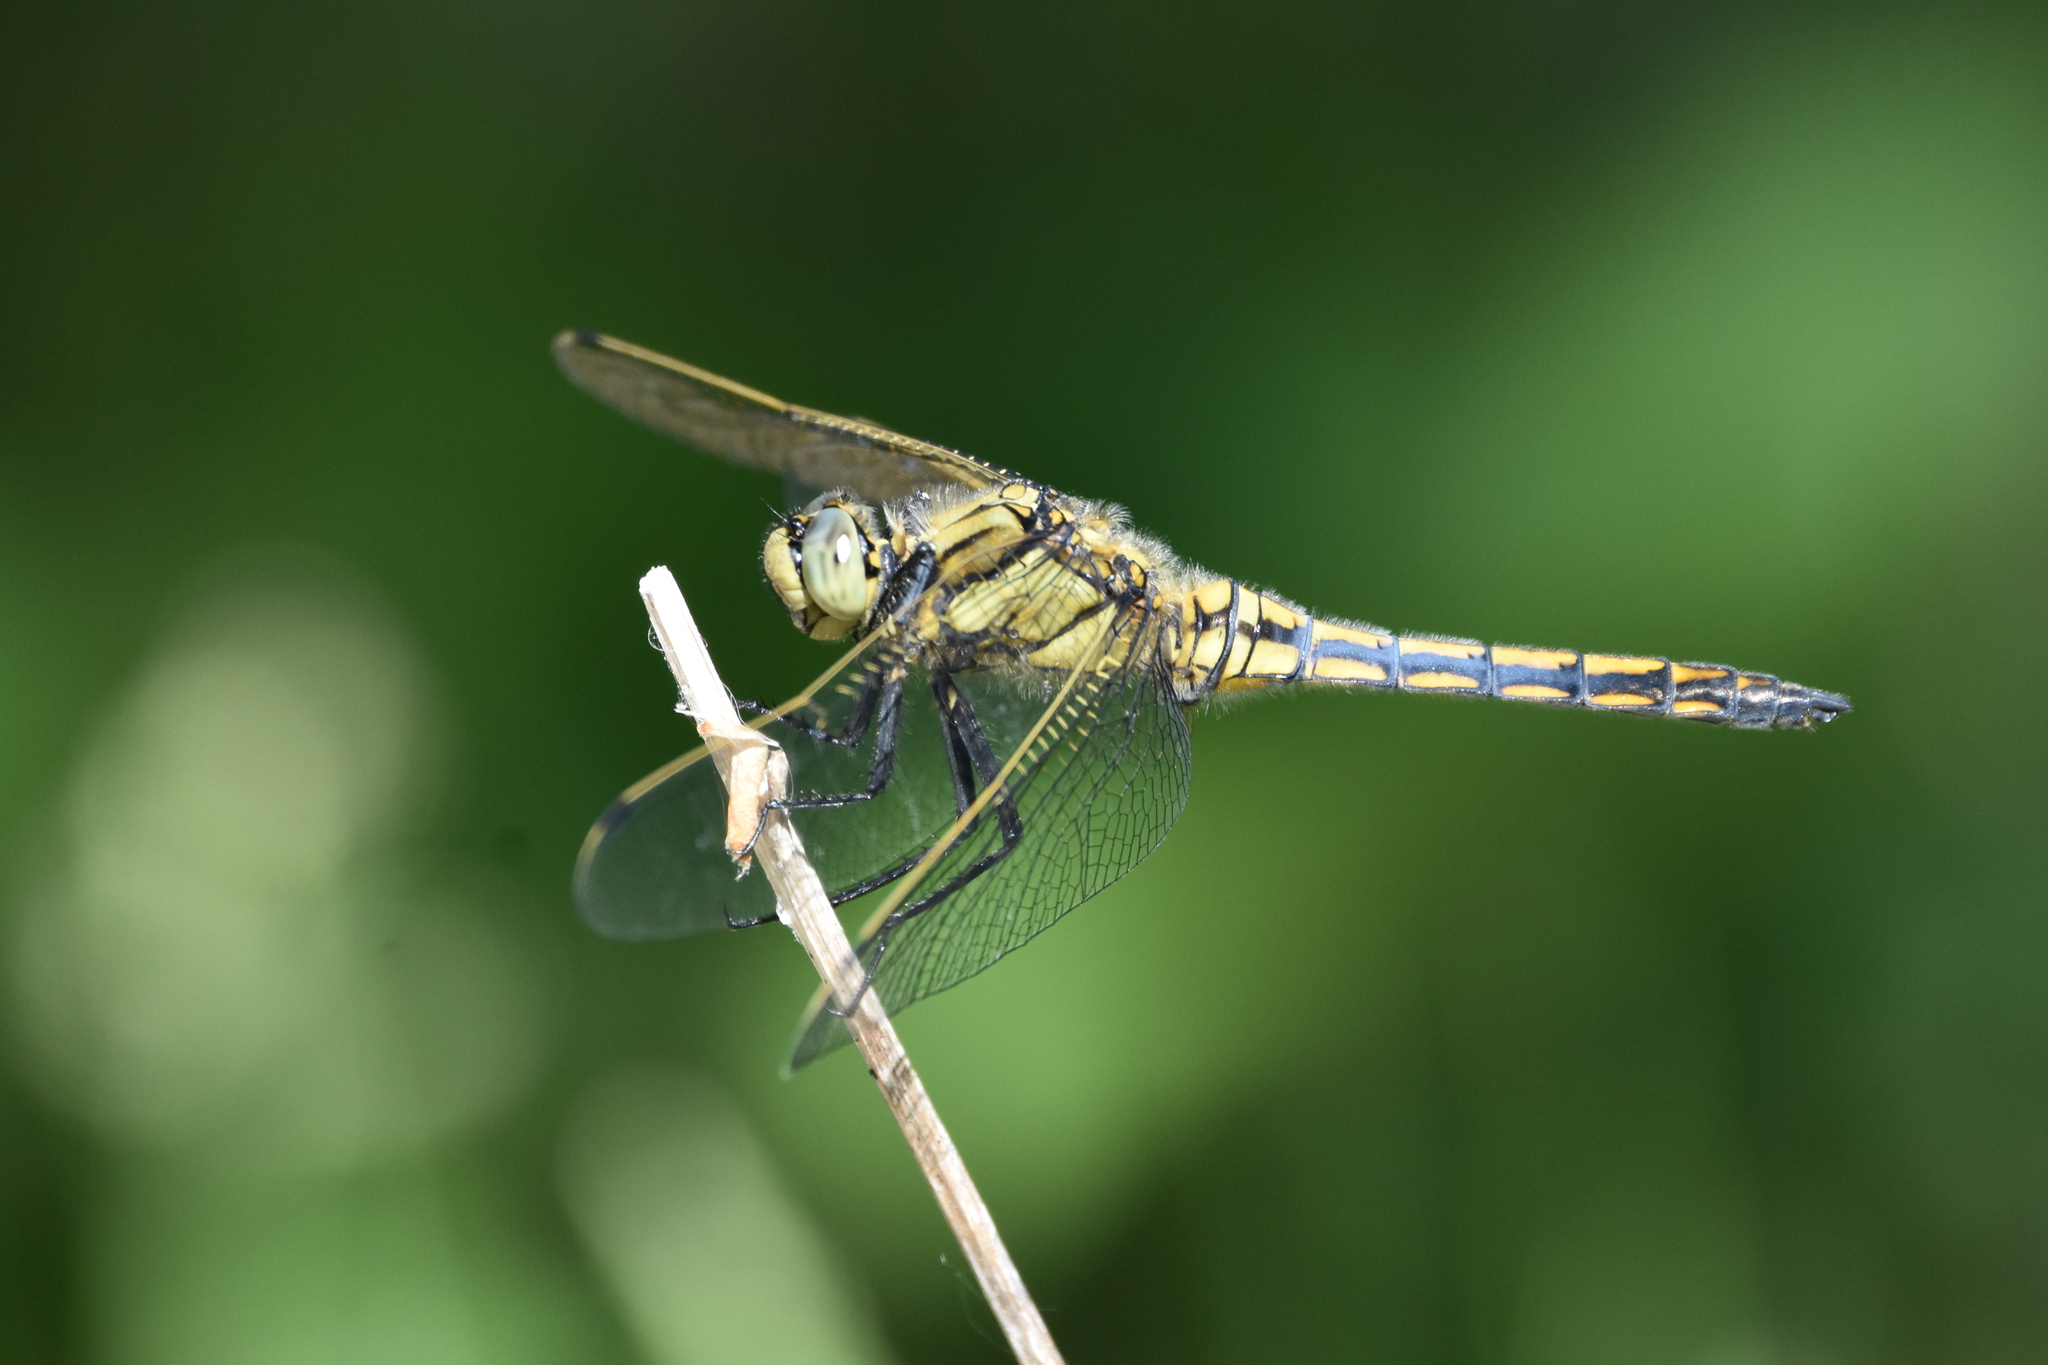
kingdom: Animalia
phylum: Arthropoda
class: Insecta
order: Odonata
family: Libellulidae
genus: Orthetrum
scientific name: Orthetrum cancellatum
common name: Black-tailed skimmer
